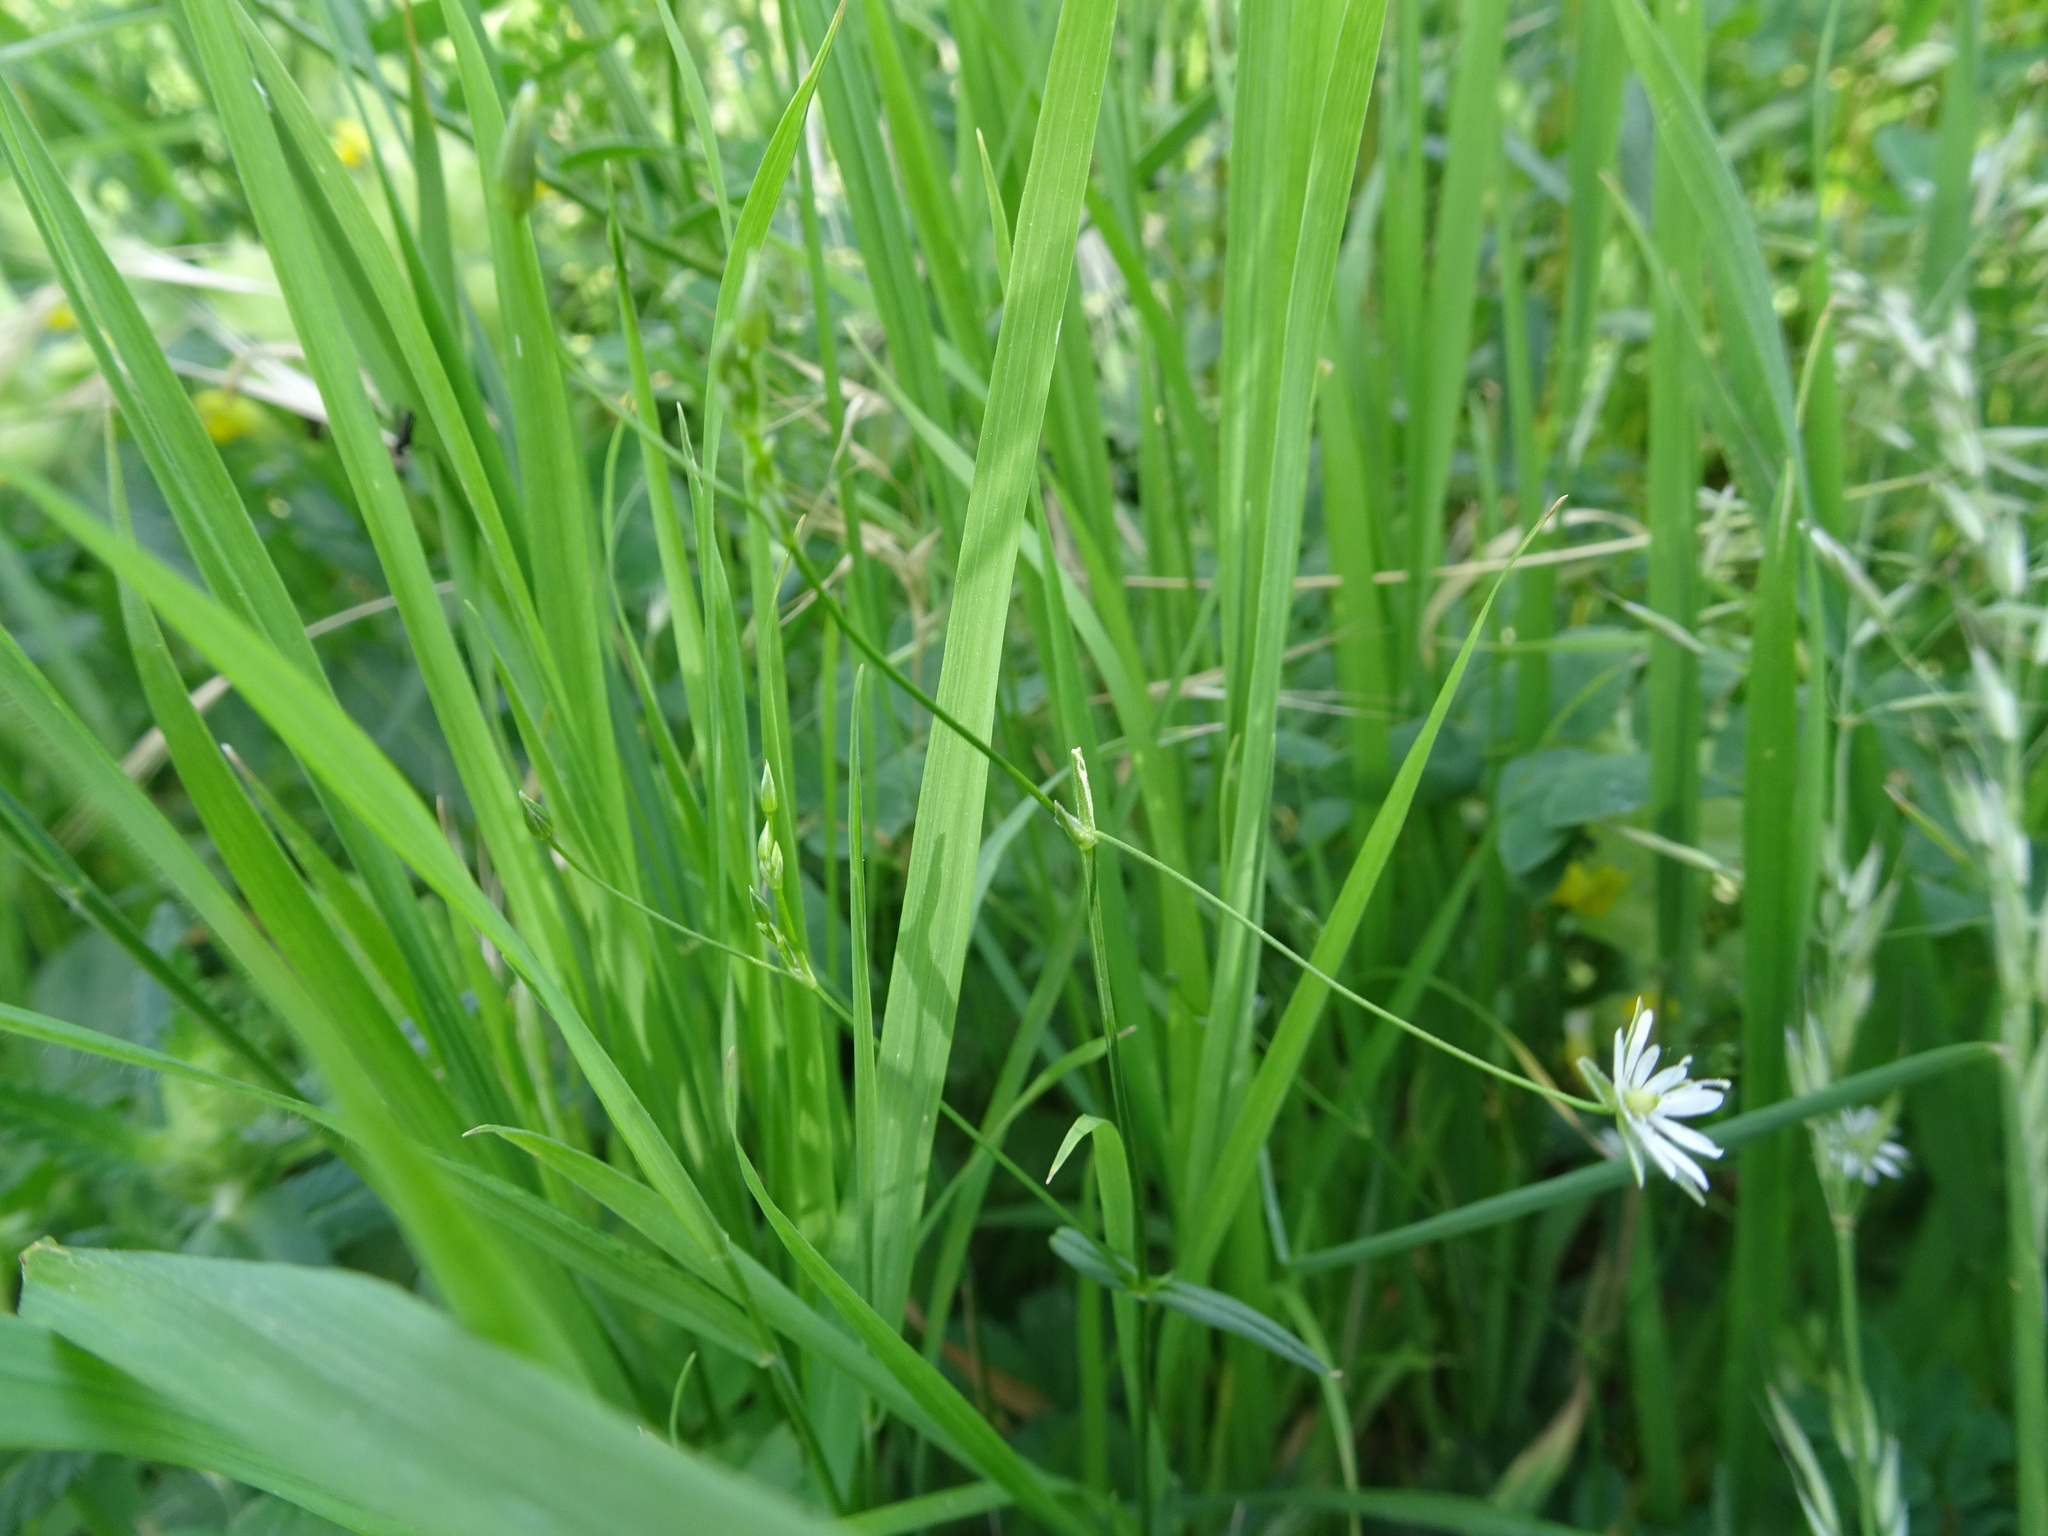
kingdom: Plantae
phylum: Tracheophyta
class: Magnoliopsida
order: Caryophyllales
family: Caryophyllaceae
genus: Stellaria
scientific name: Stellaria graminea
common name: Grass-like starwort
